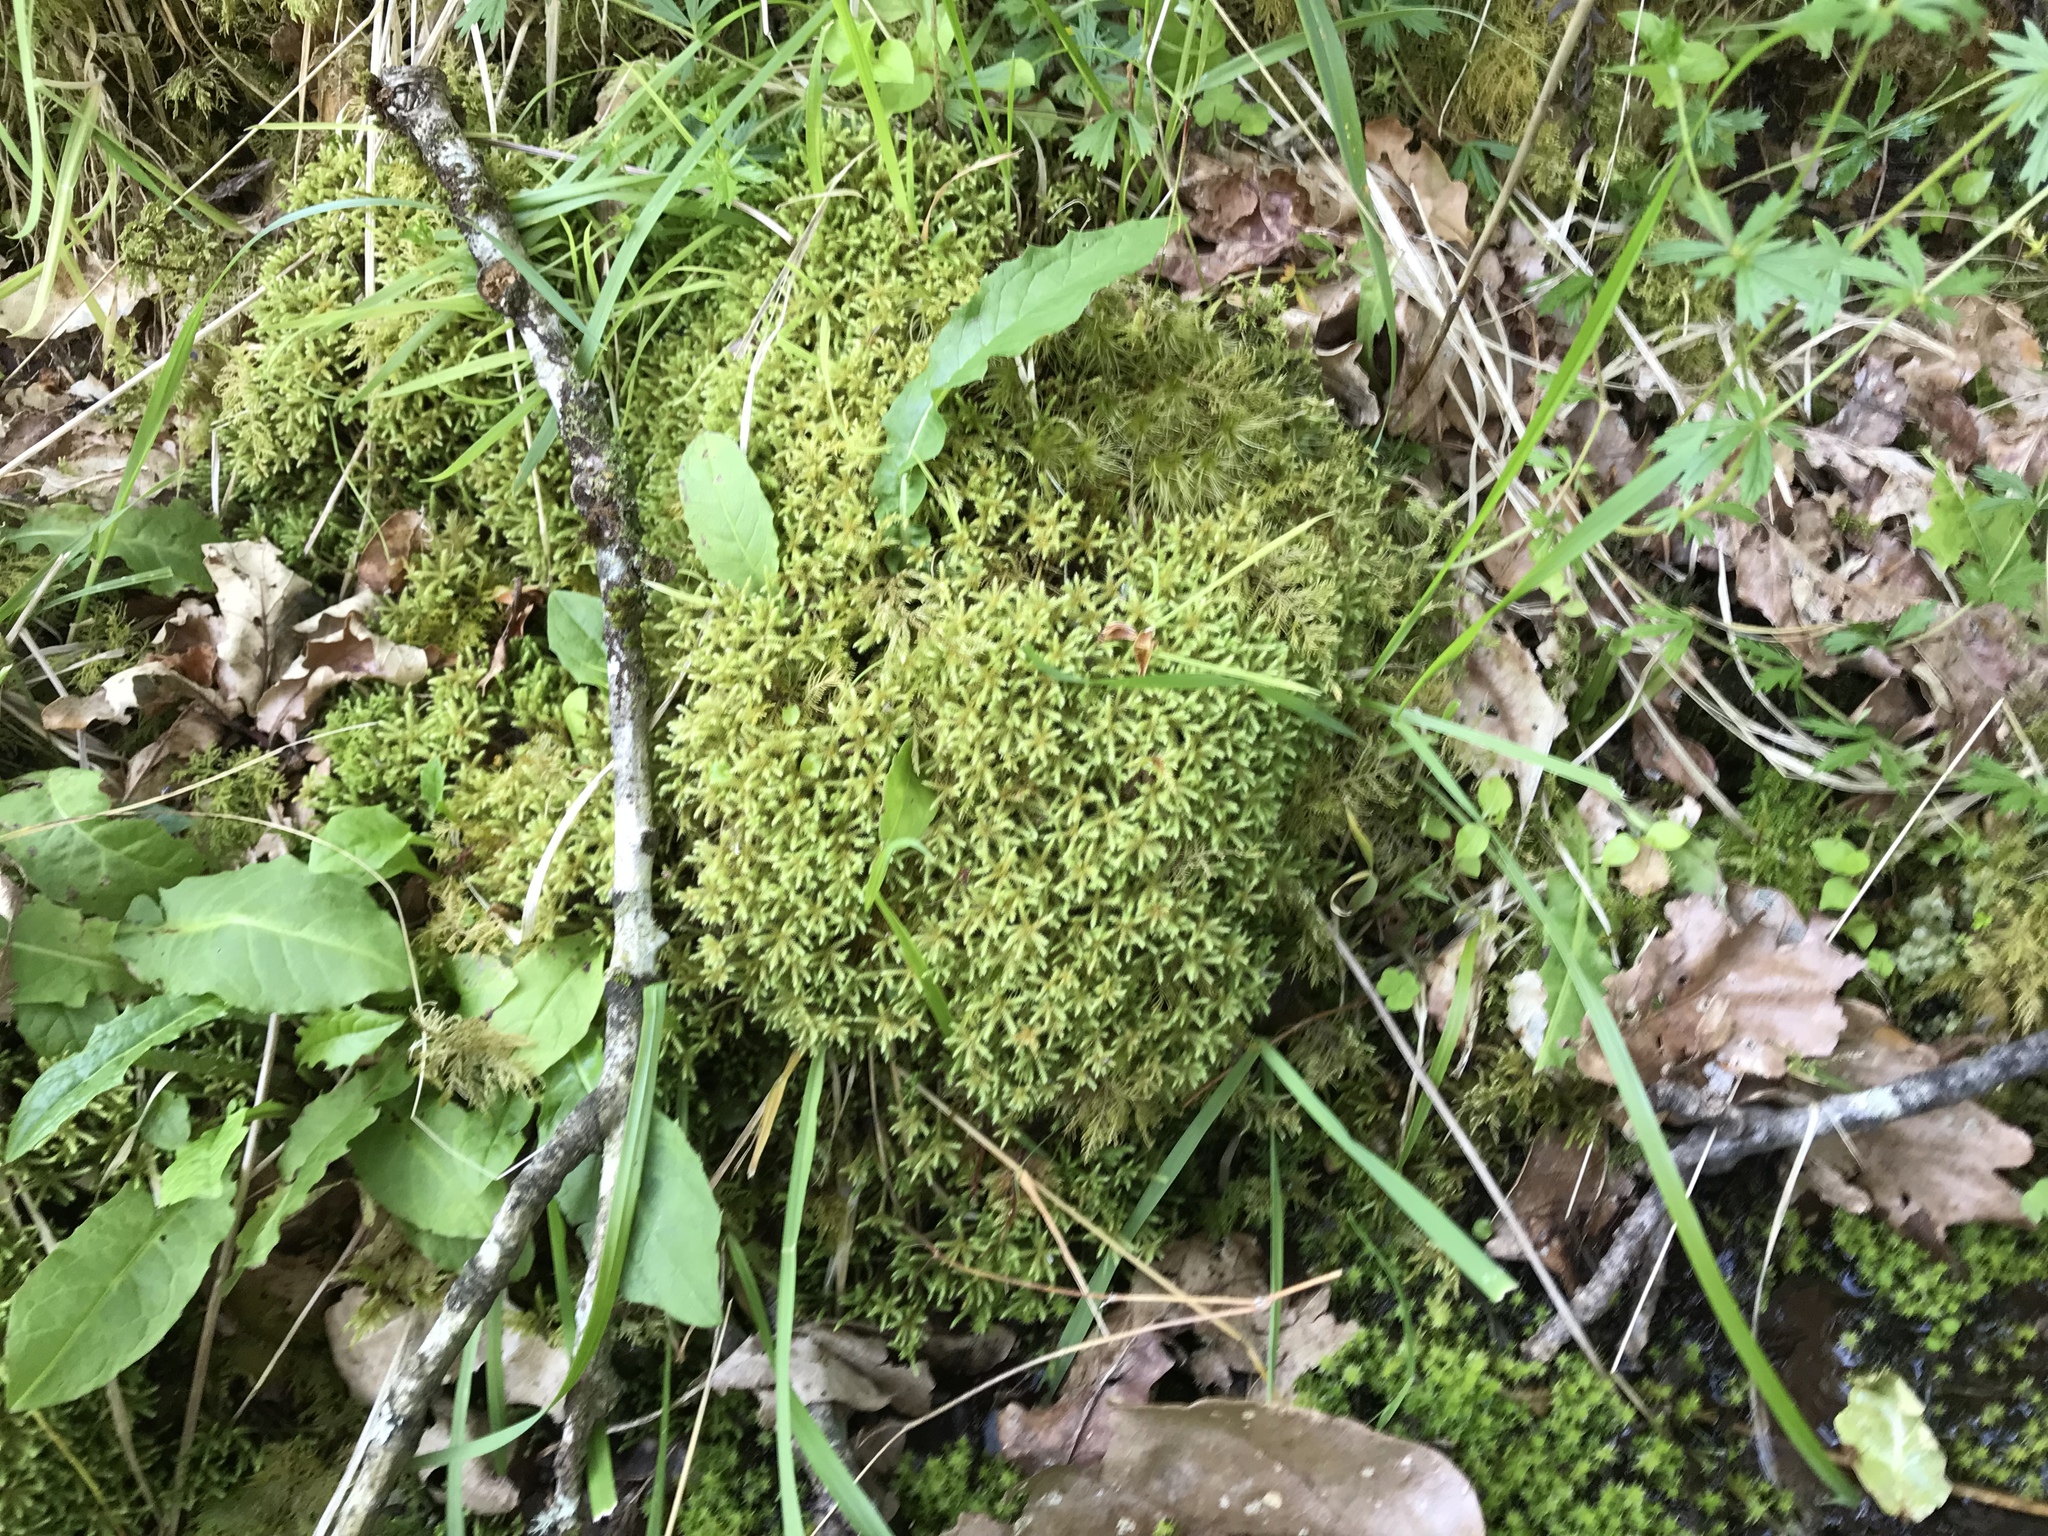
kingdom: Plantae
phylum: Bryophyta
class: Bryopsida
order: Bartramiales
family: Bartramiaceae
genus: Philonotis
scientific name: Philonotis fontana
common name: Fountain apple-moss
